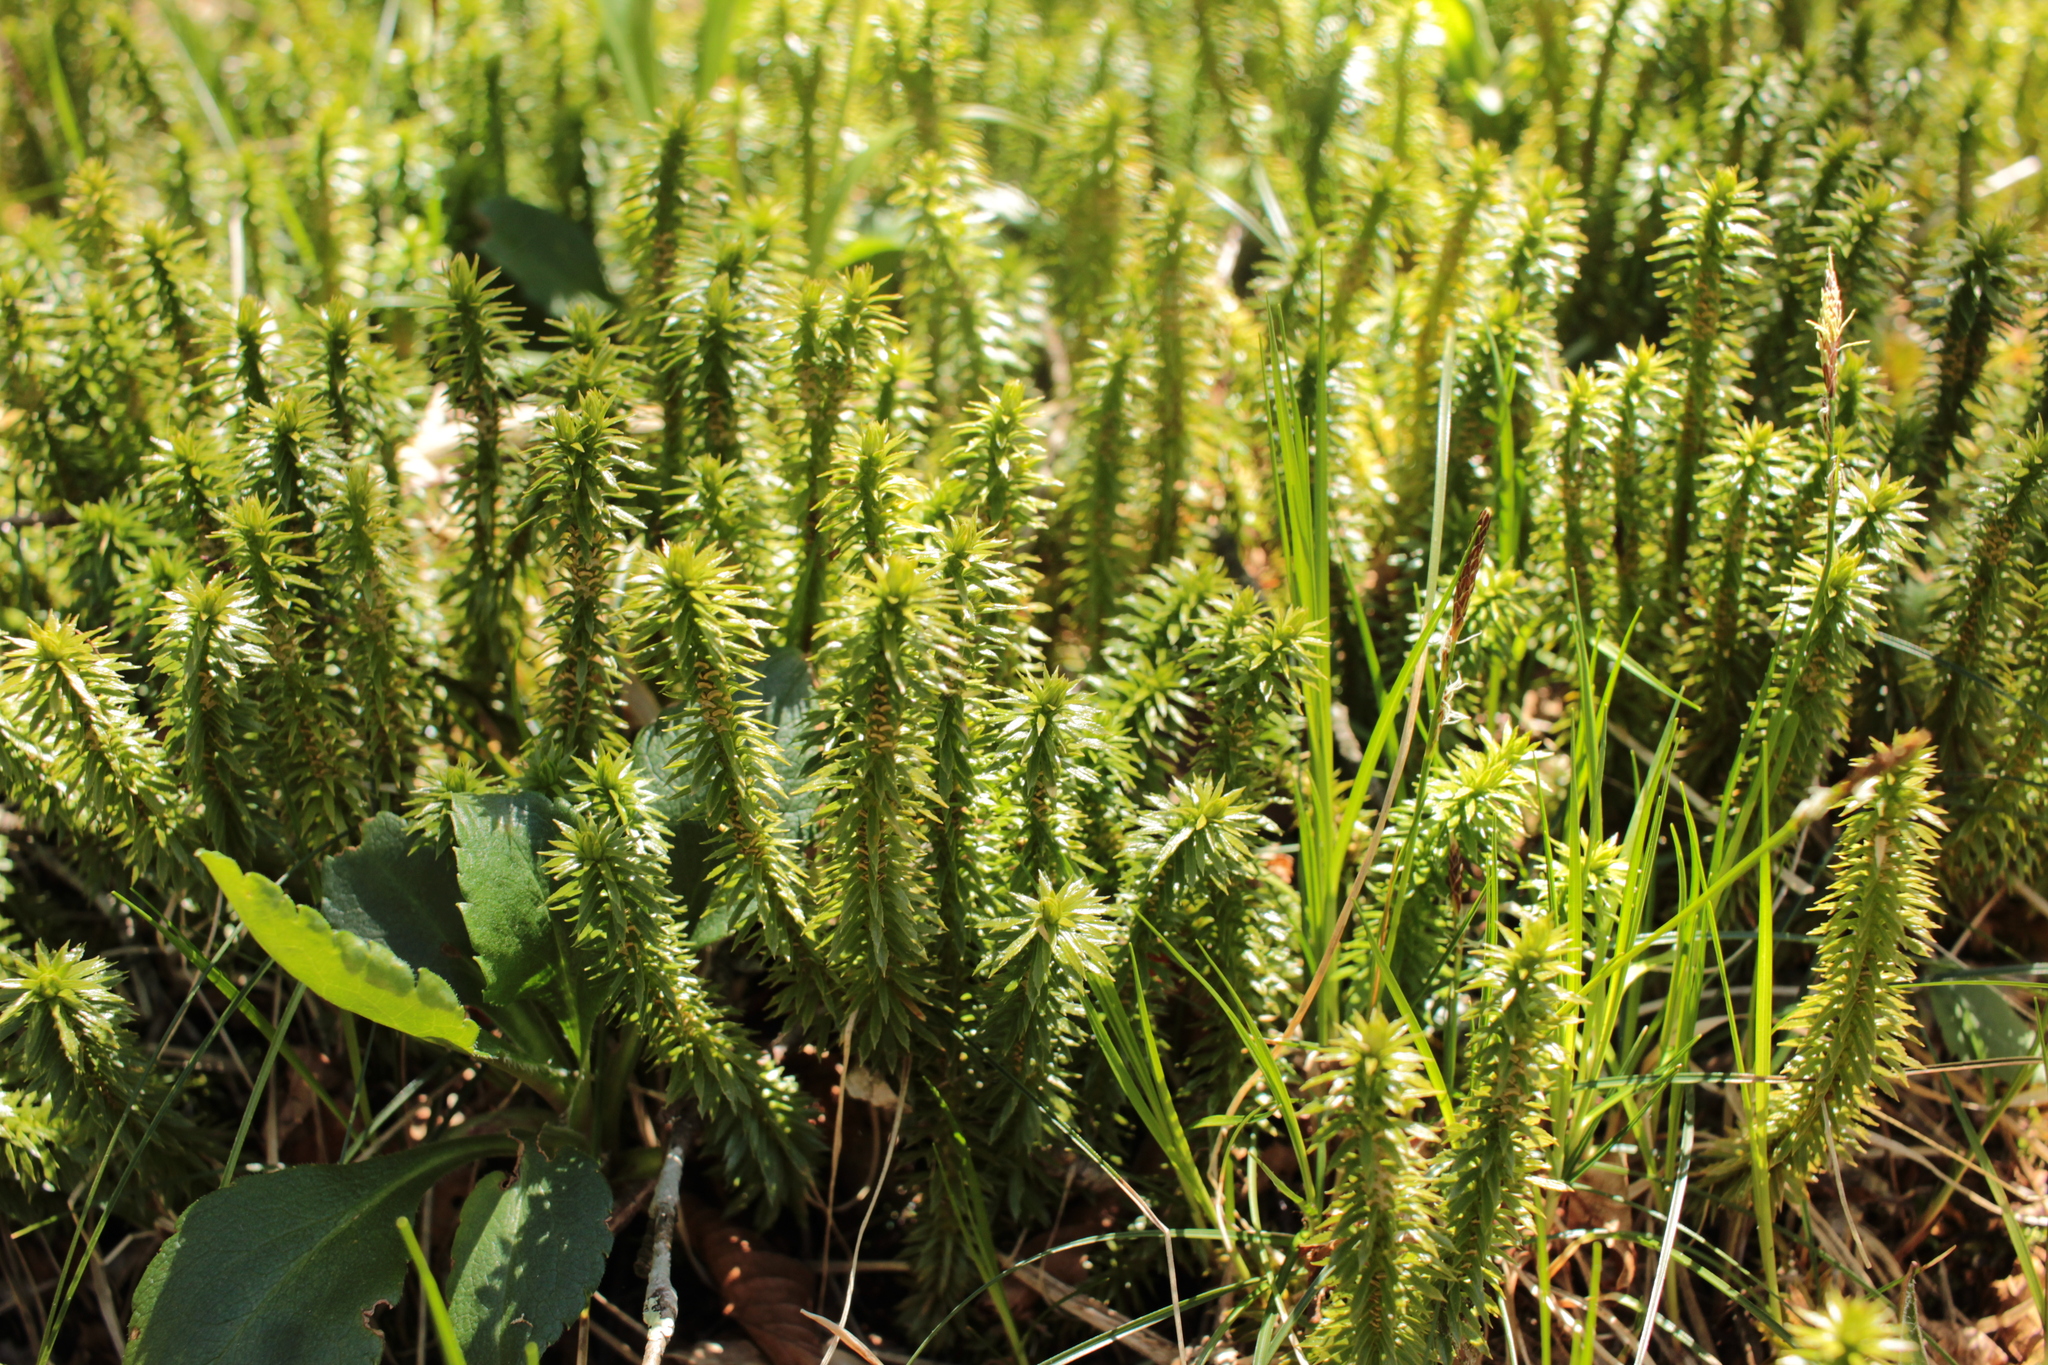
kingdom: Plantae
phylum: Tracheophyta
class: Lycopodiopsida
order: Lycopodiales
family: Lycopodiaceae
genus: Huperzia
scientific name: Huperzia lucidula
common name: Shining clubmoss
